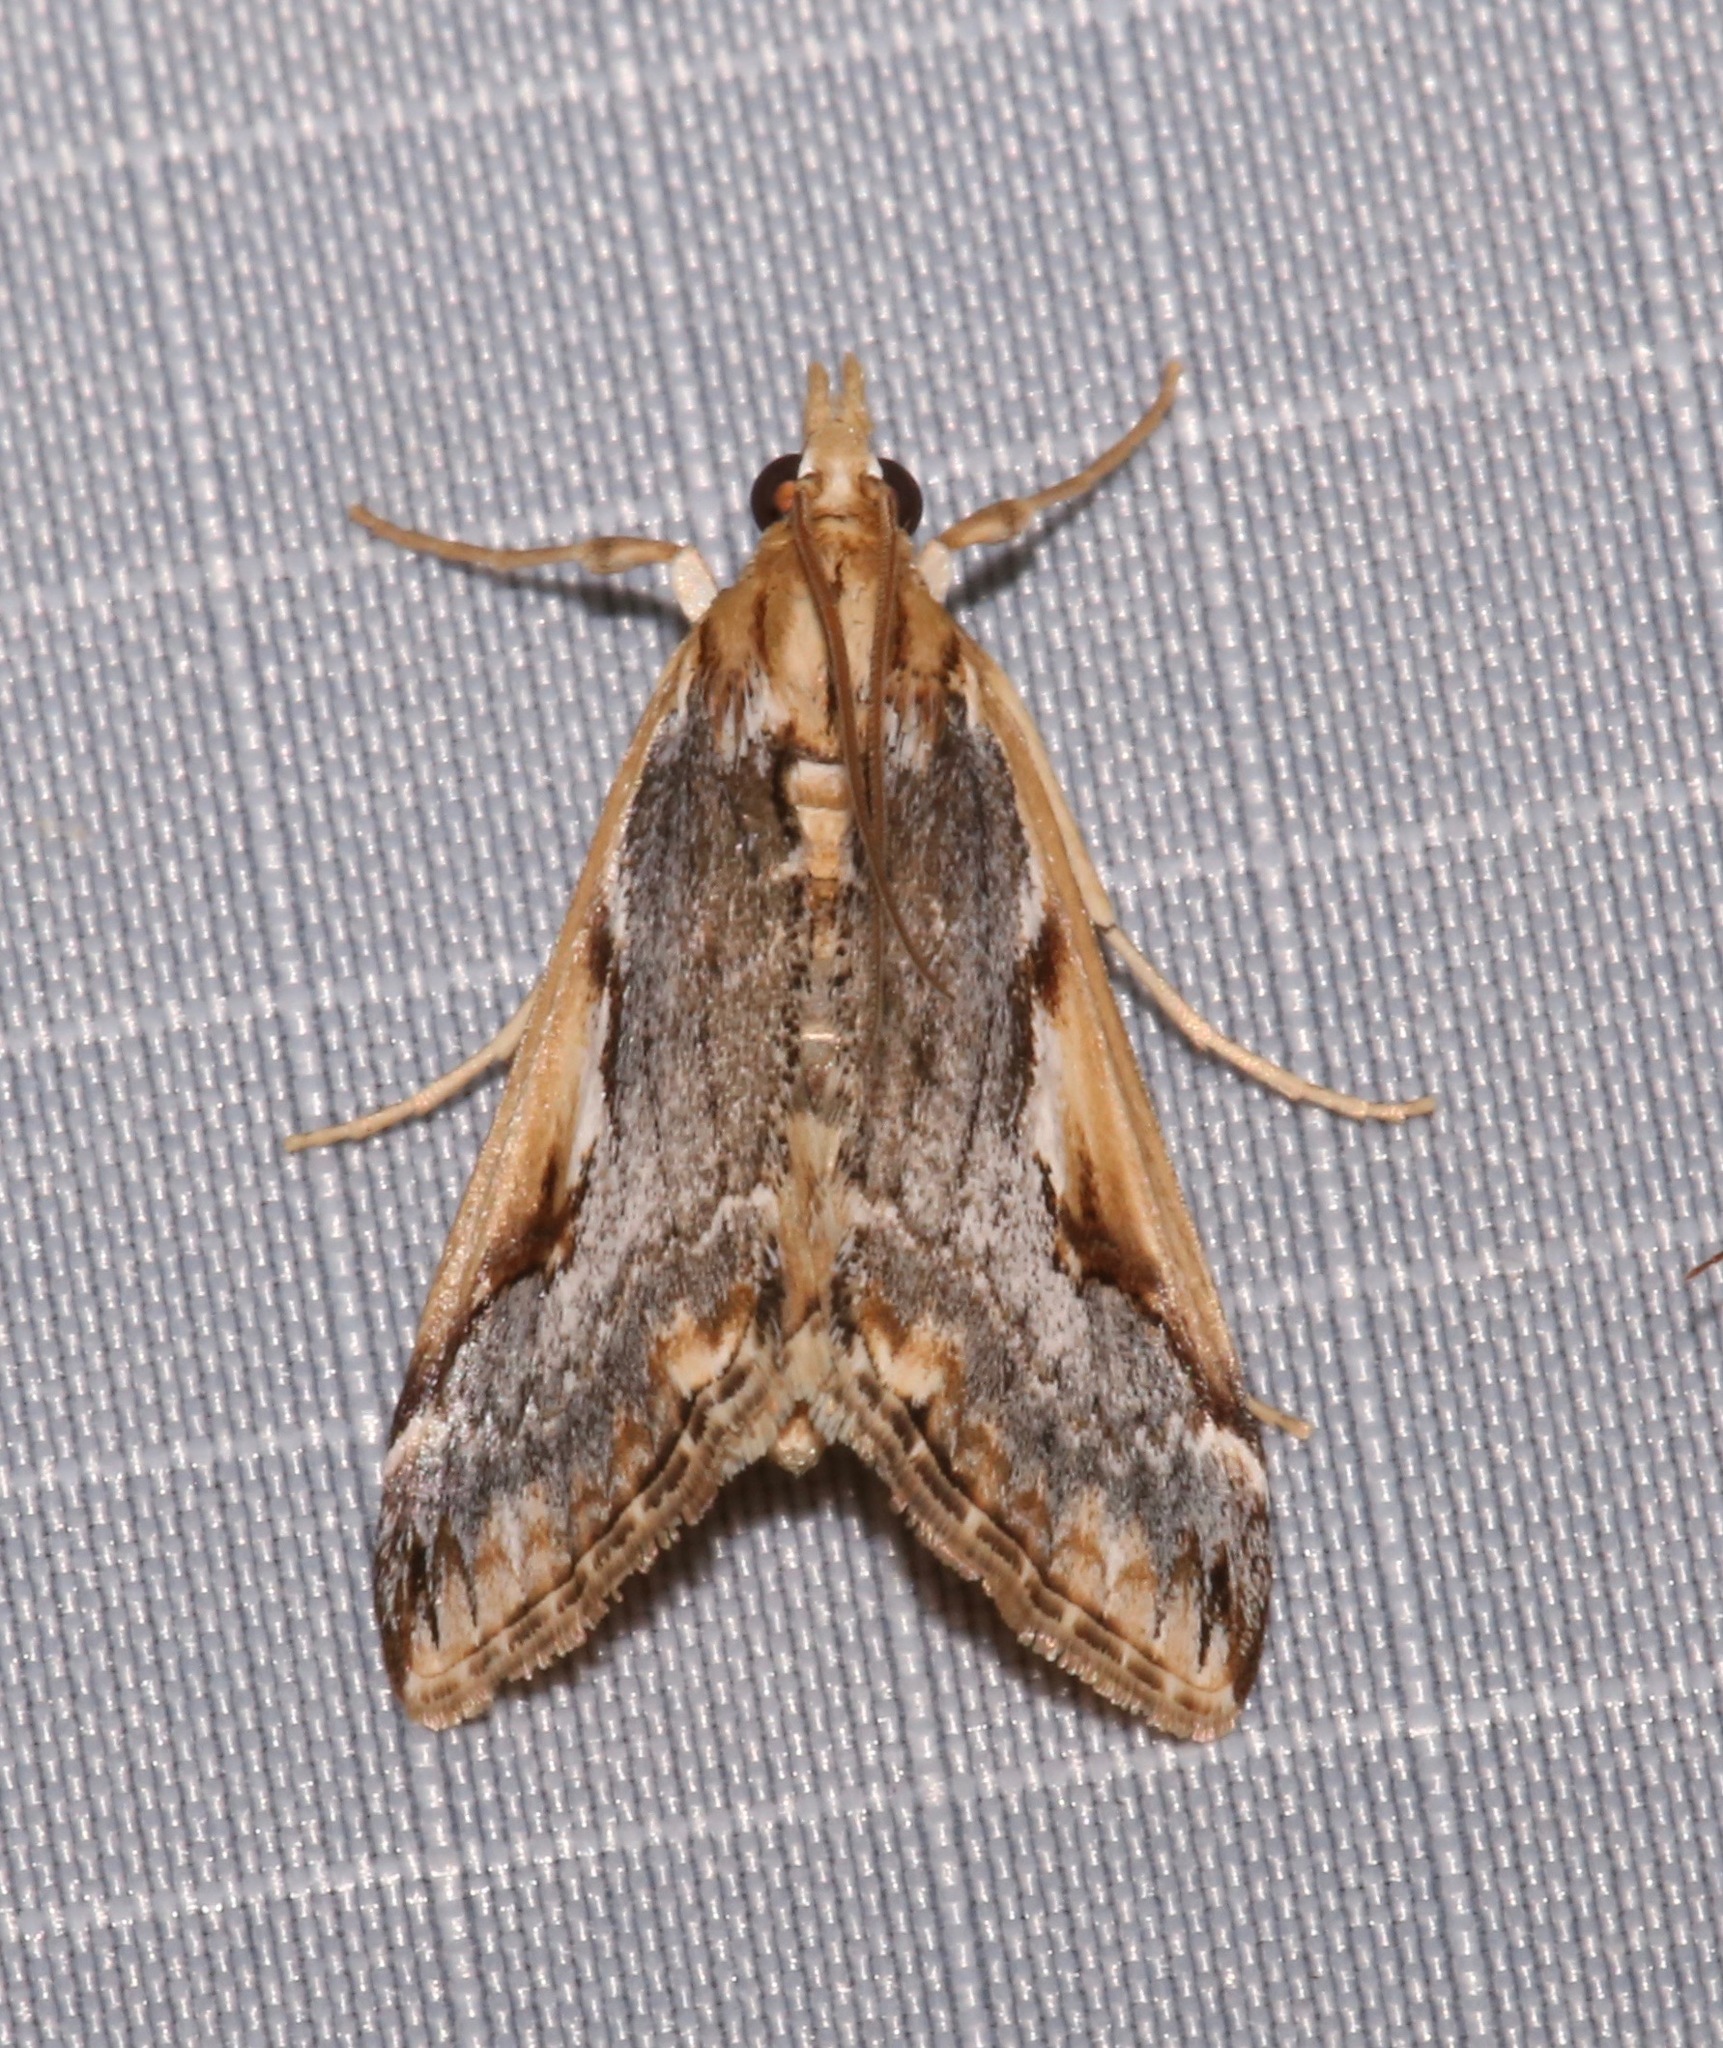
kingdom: Animalia
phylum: Arthropoda
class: Insecta
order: Lepidoptera
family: Crambidae
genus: Loxostege
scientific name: Loxostege albiceralis
